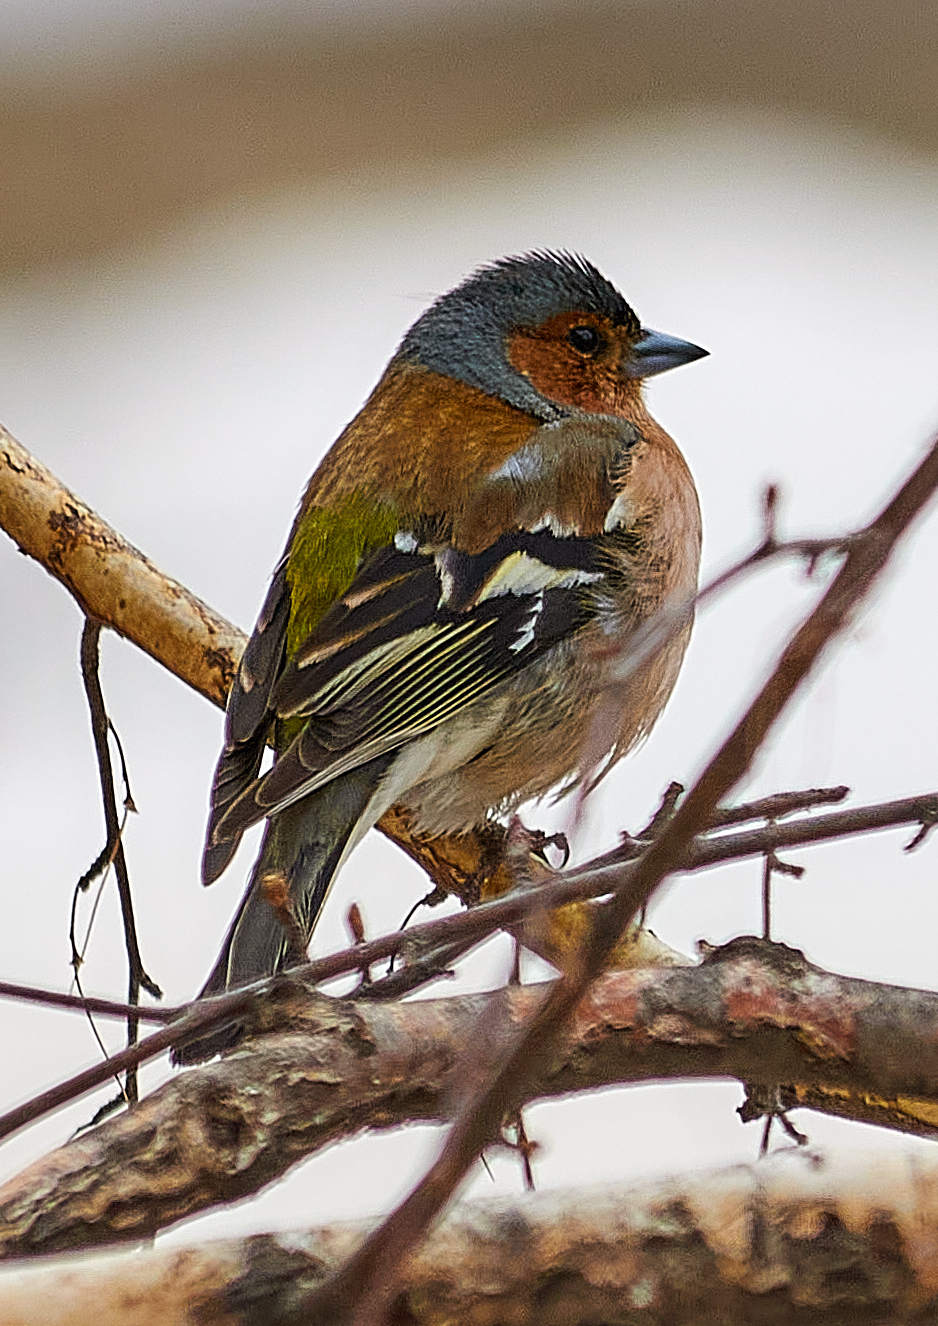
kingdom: Animalia
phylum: Chordata
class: Aves
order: Passeriformes
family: Fringillidae
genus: Fringilla
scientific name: Fringilla coelebs
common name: Common chaffinch
